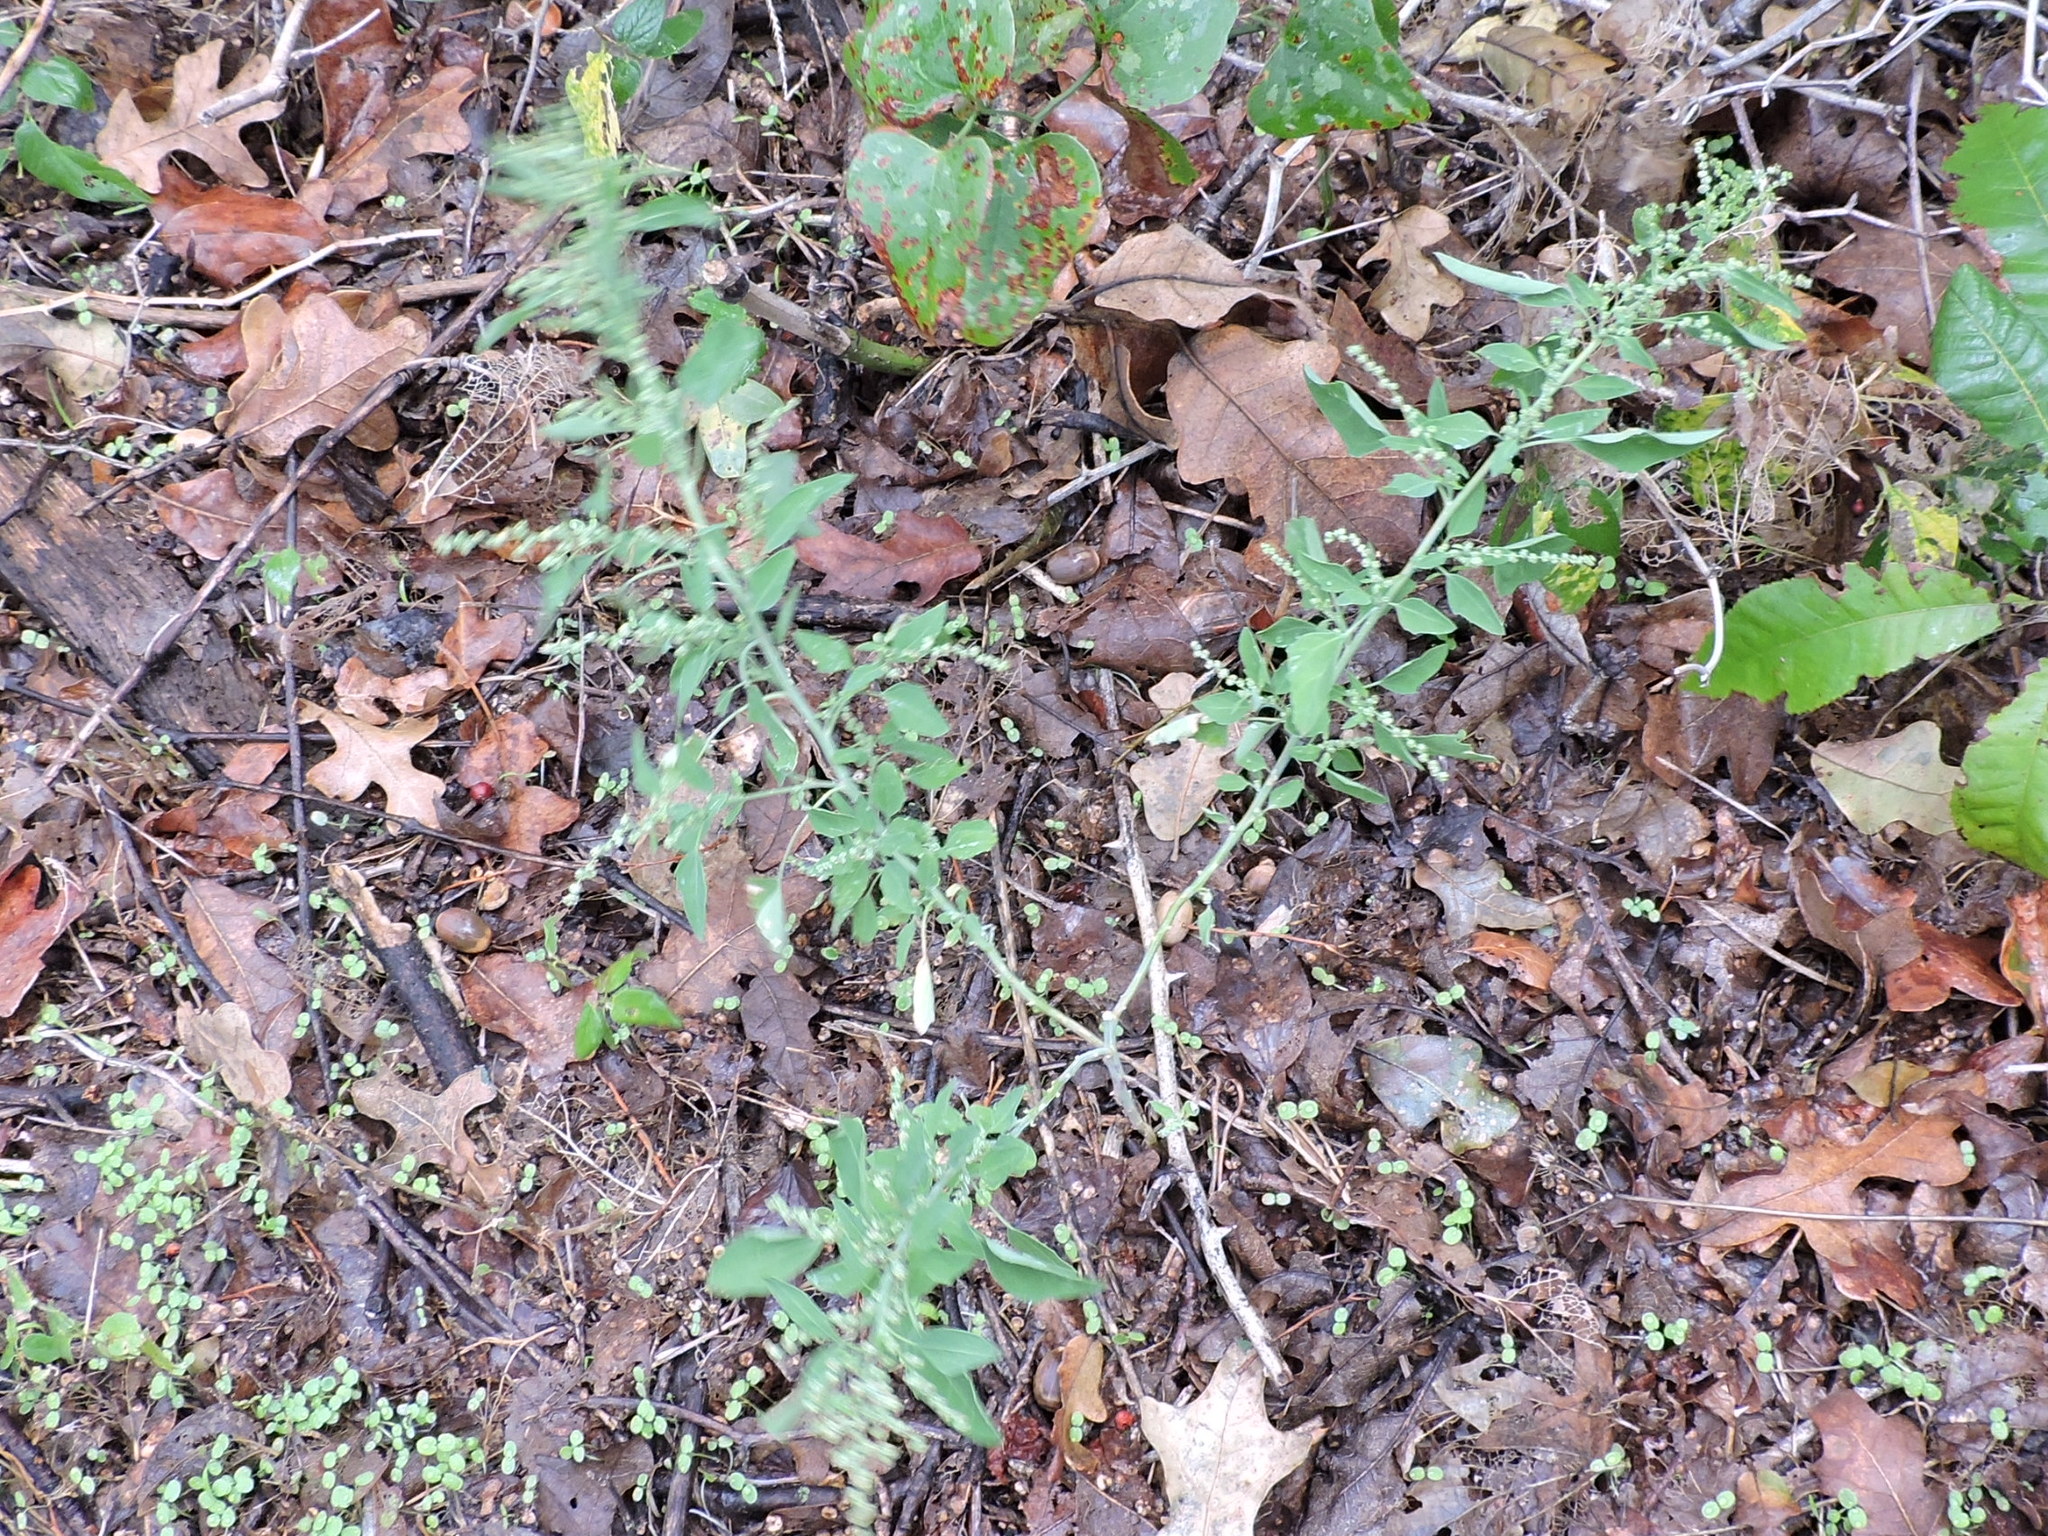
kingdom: Plantae
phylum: Tracheophyta
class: Magnoliopsida
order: Caryophyllales
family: Amaranthaceae
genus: Chenopodium
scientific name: Chenopodium album
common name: Fat-hen
